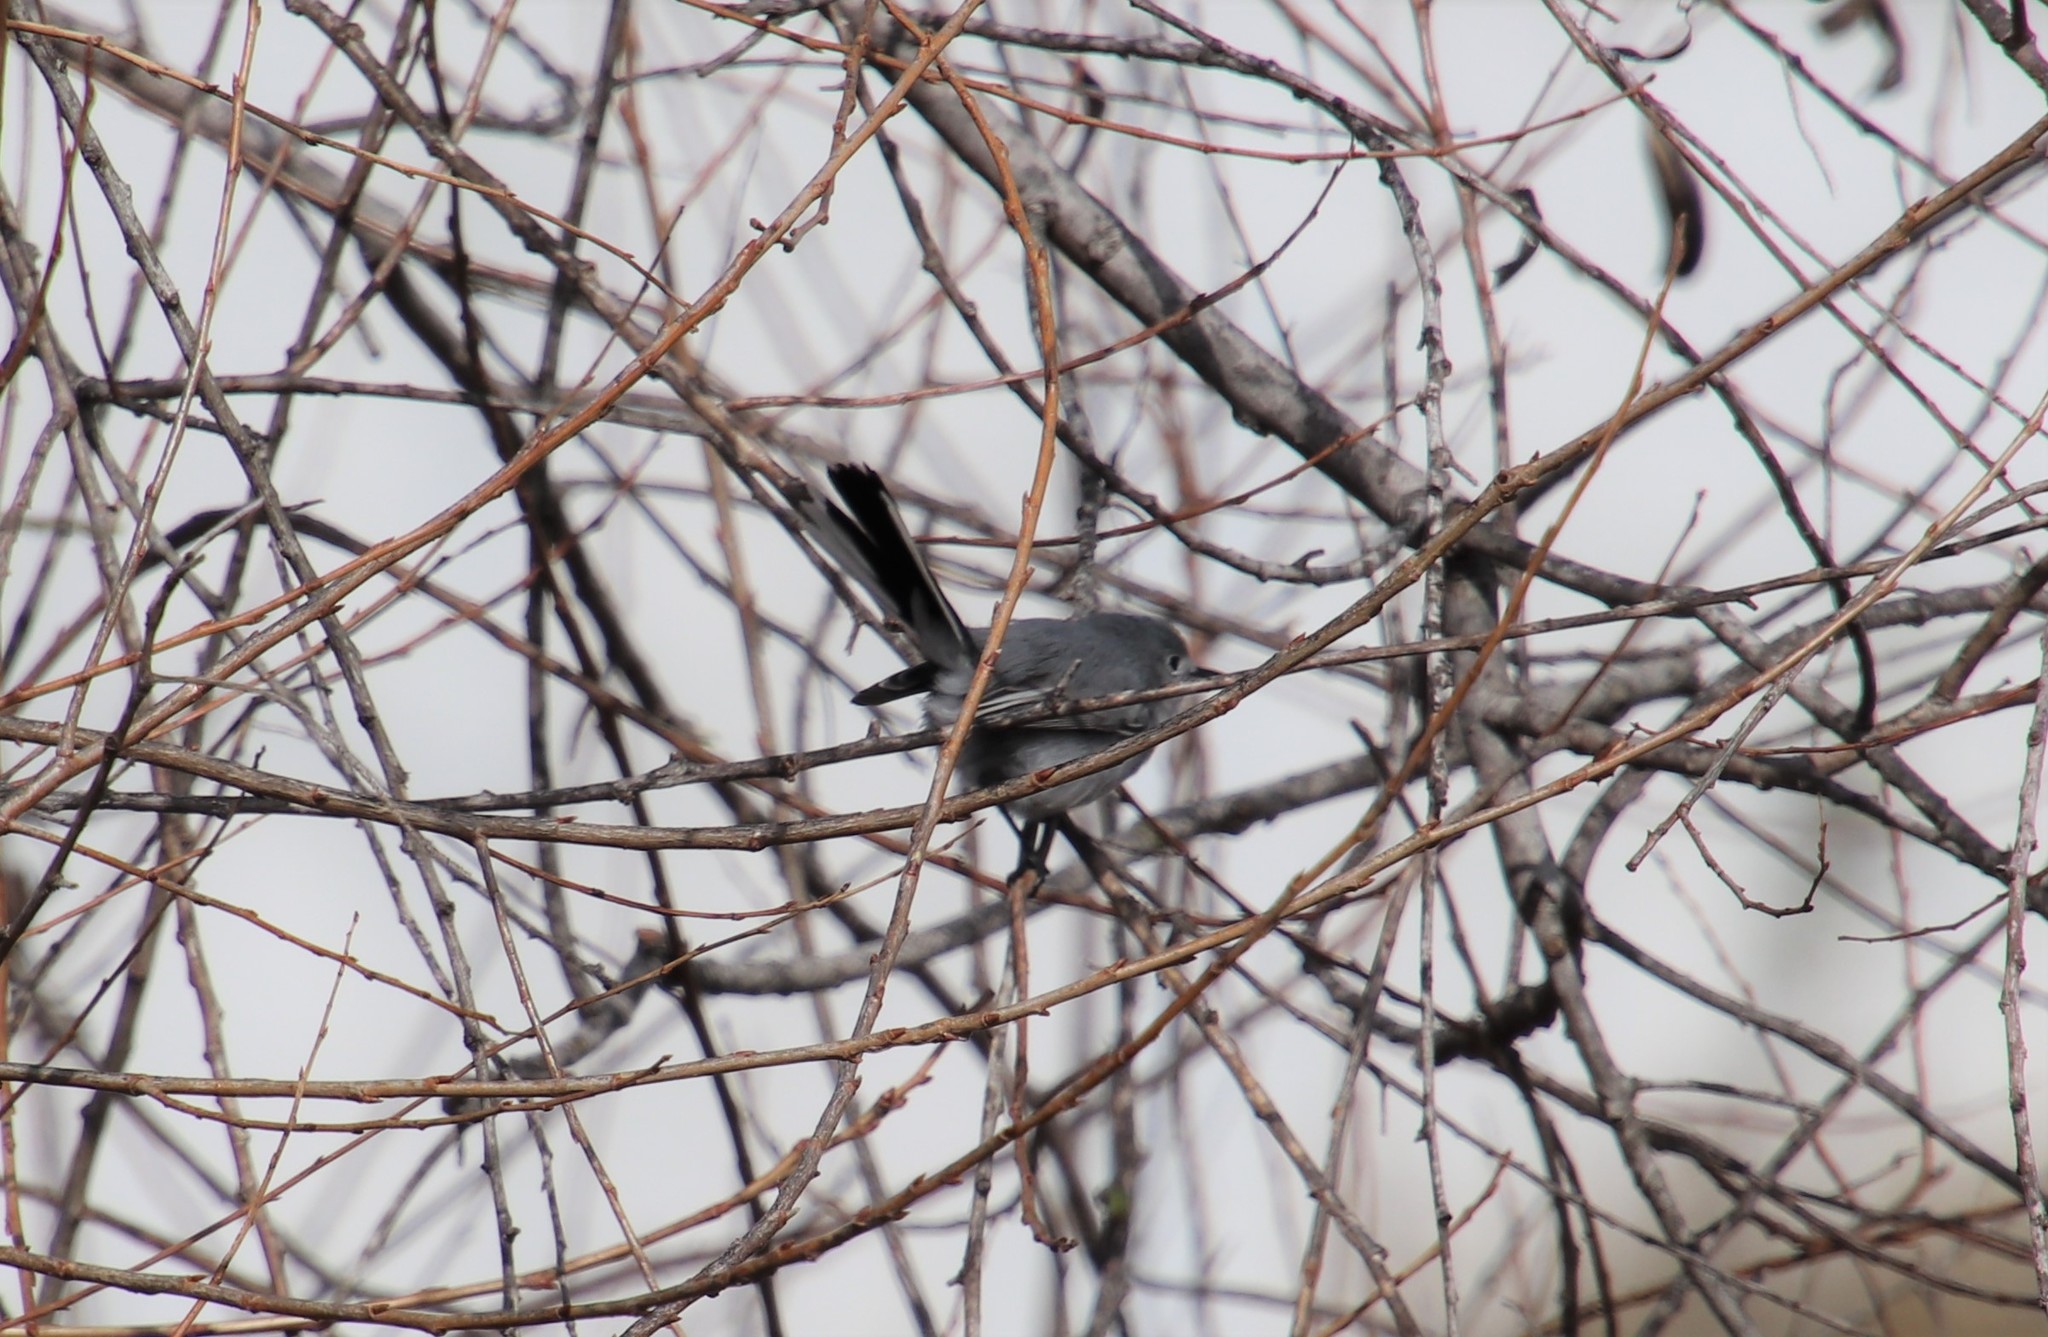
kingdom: Animalia
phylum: Chordata
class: Aves
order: Passeriformes
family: Polioptilidae
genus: Polioptila
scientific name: Polioptila caerulea
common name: Blue-gray gnatcatcher
